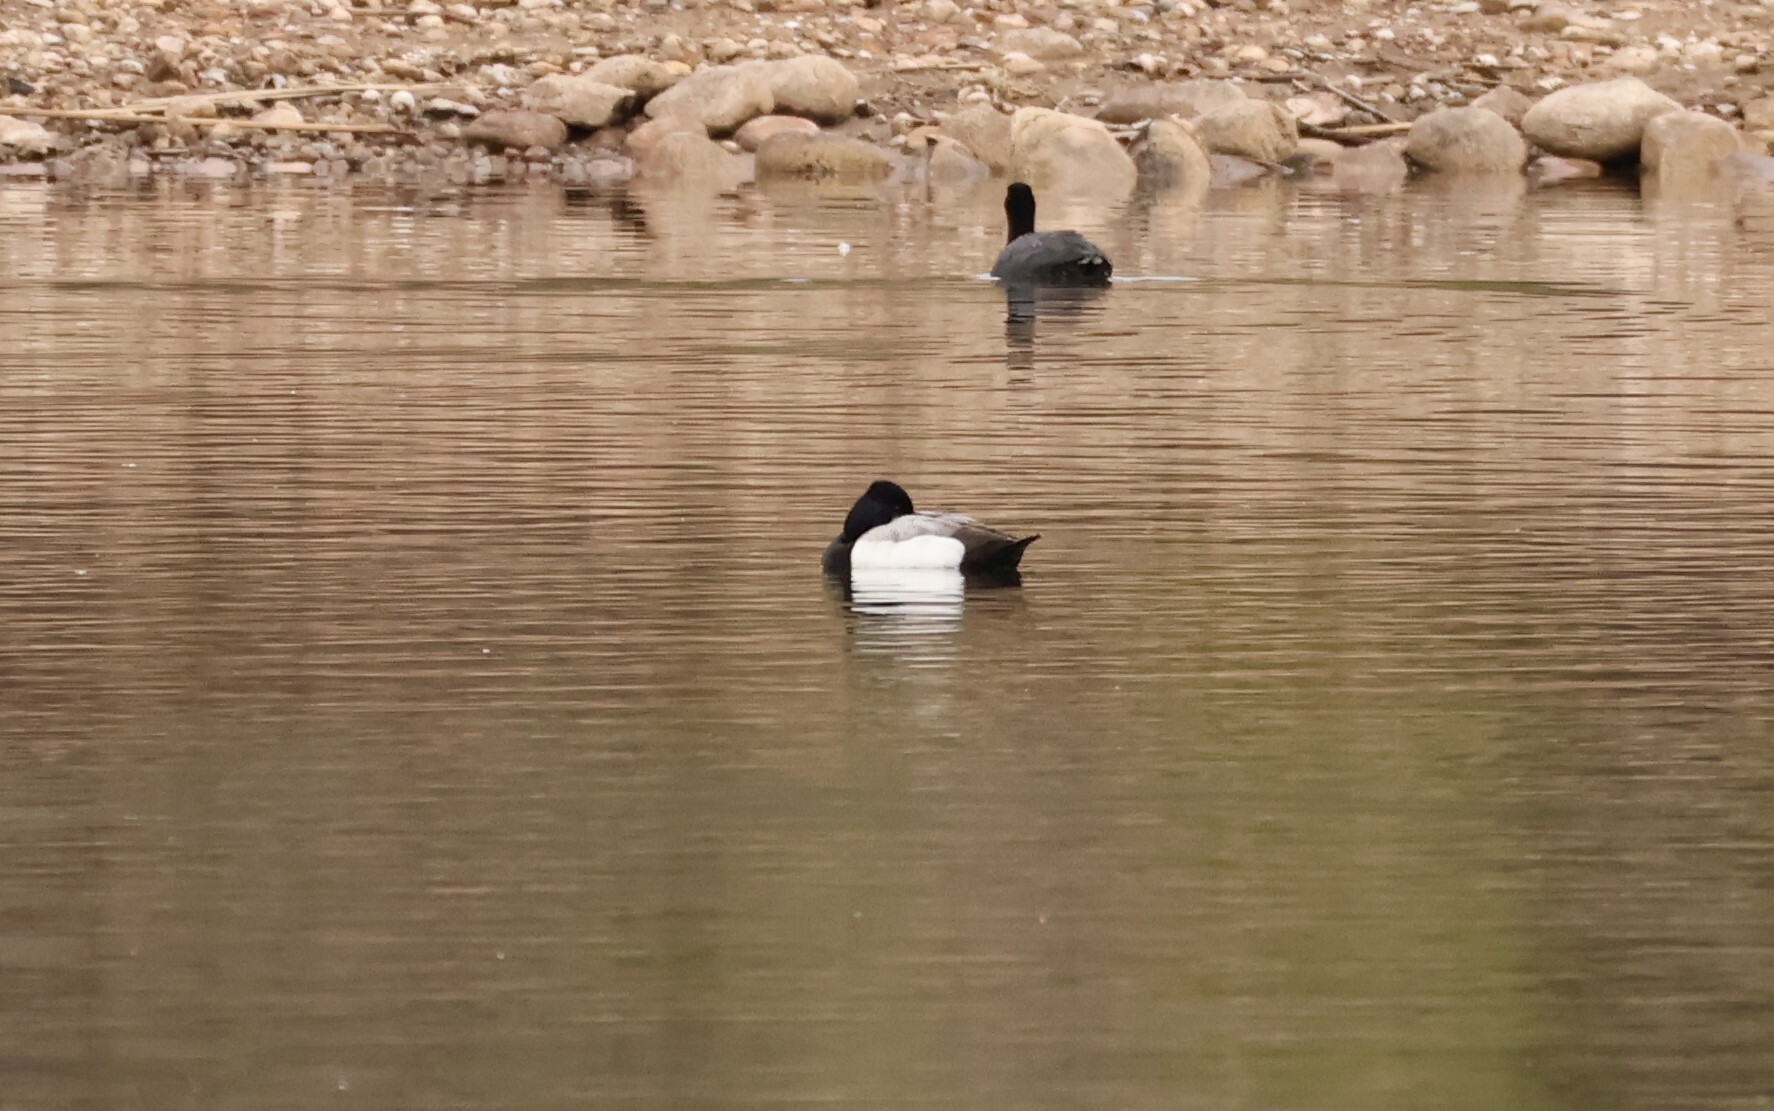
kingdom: Animalia
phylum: Chordata
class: Aves
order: Anseriformes
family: Anatidae
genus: Aythya
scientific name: Aythya affinis
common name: Lesser scaup
